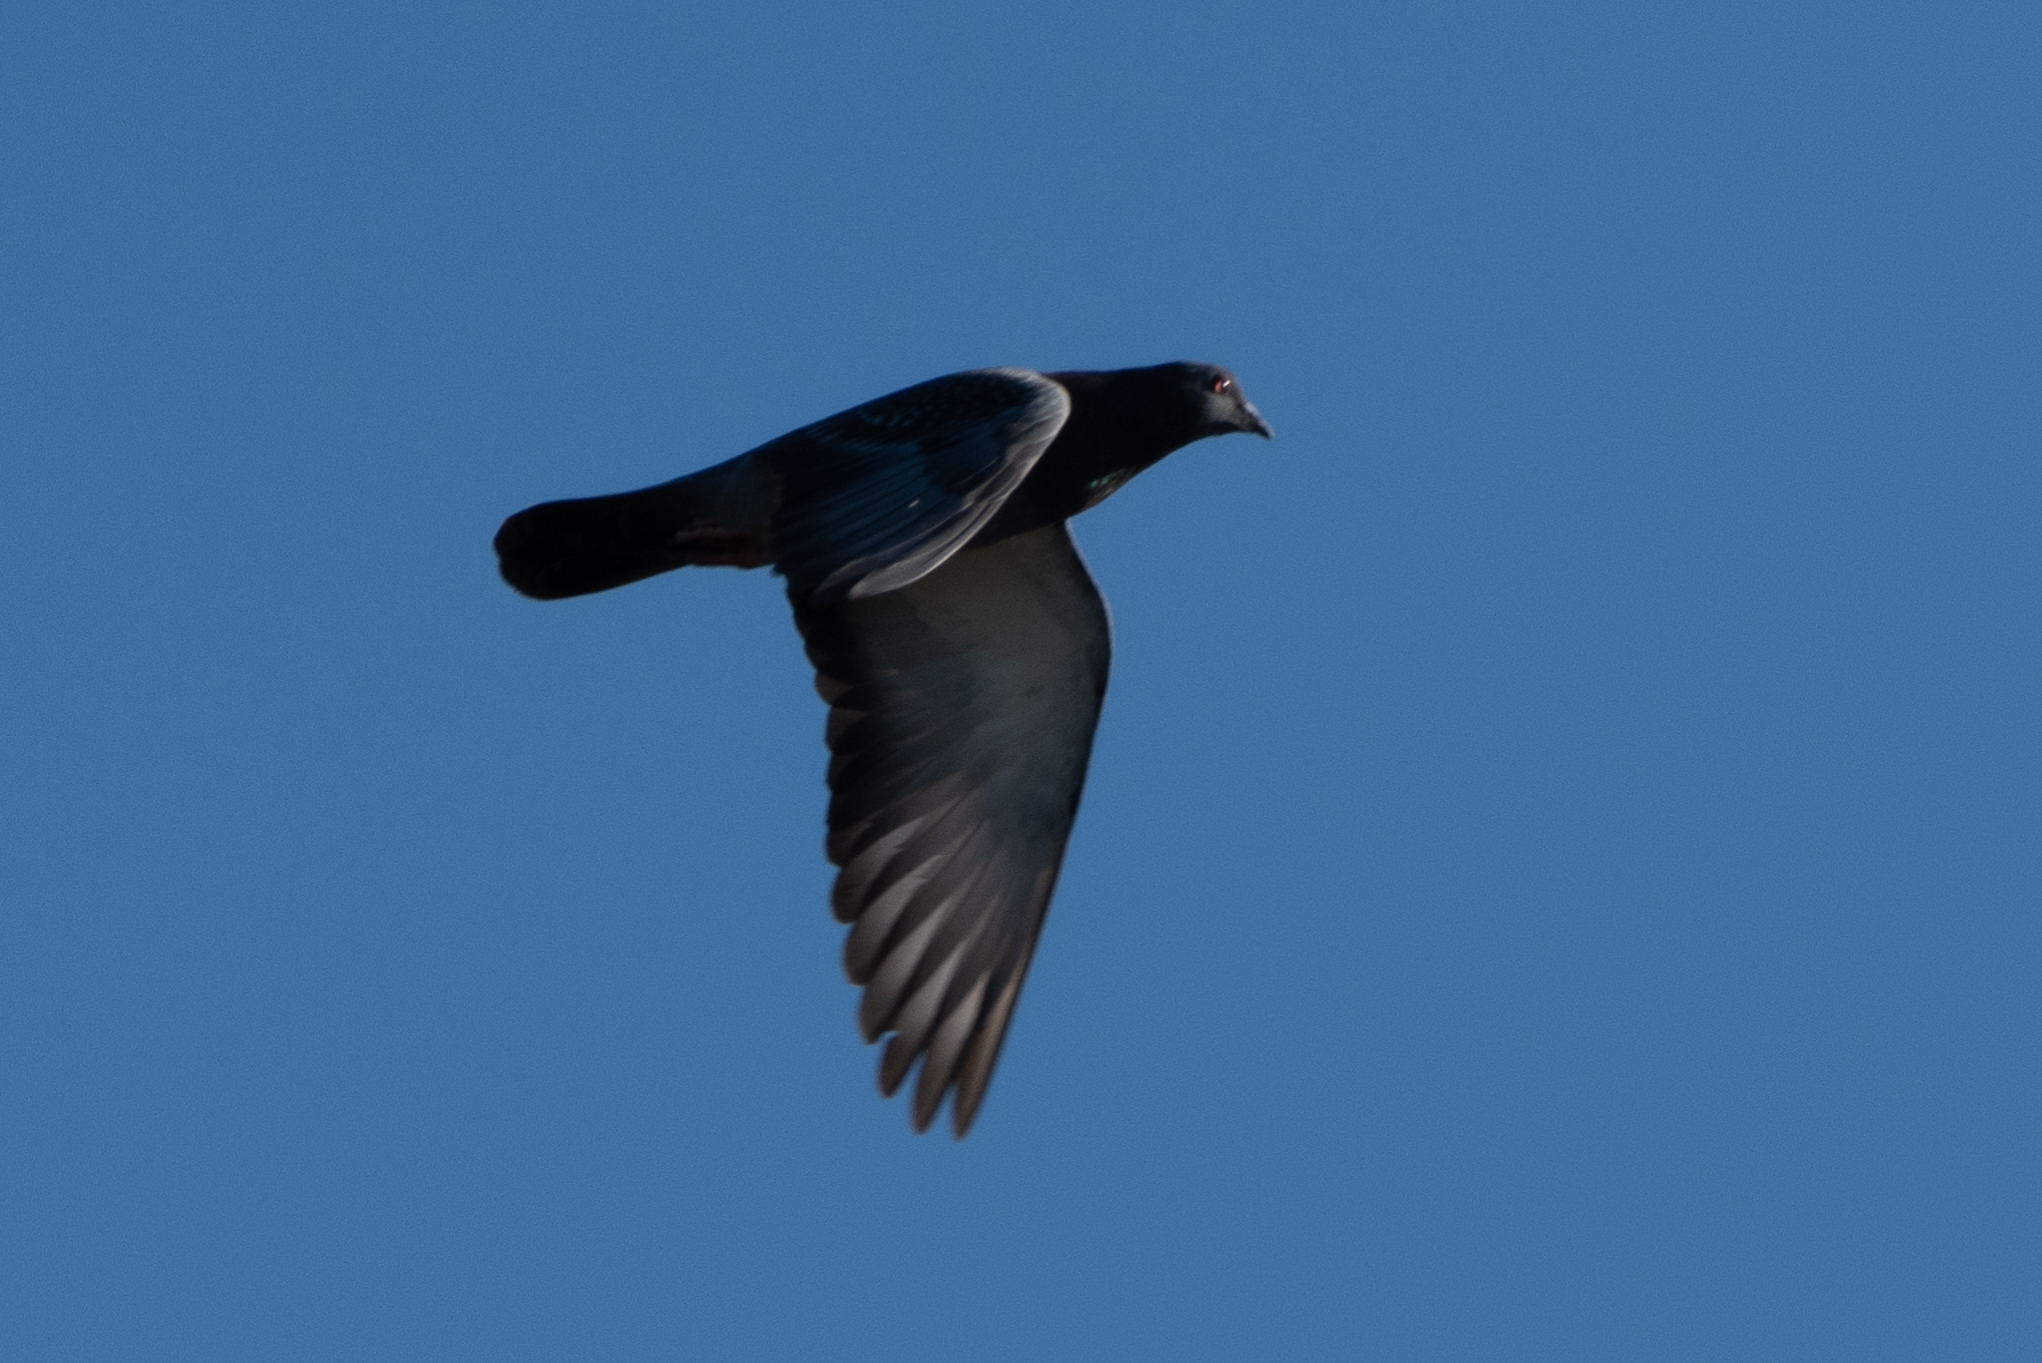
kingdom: Animalia
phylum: Chordata
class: Aves
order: Columbiformes
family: Columbidae
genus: Columba
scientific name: Columba livia
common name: Rock pigeon
